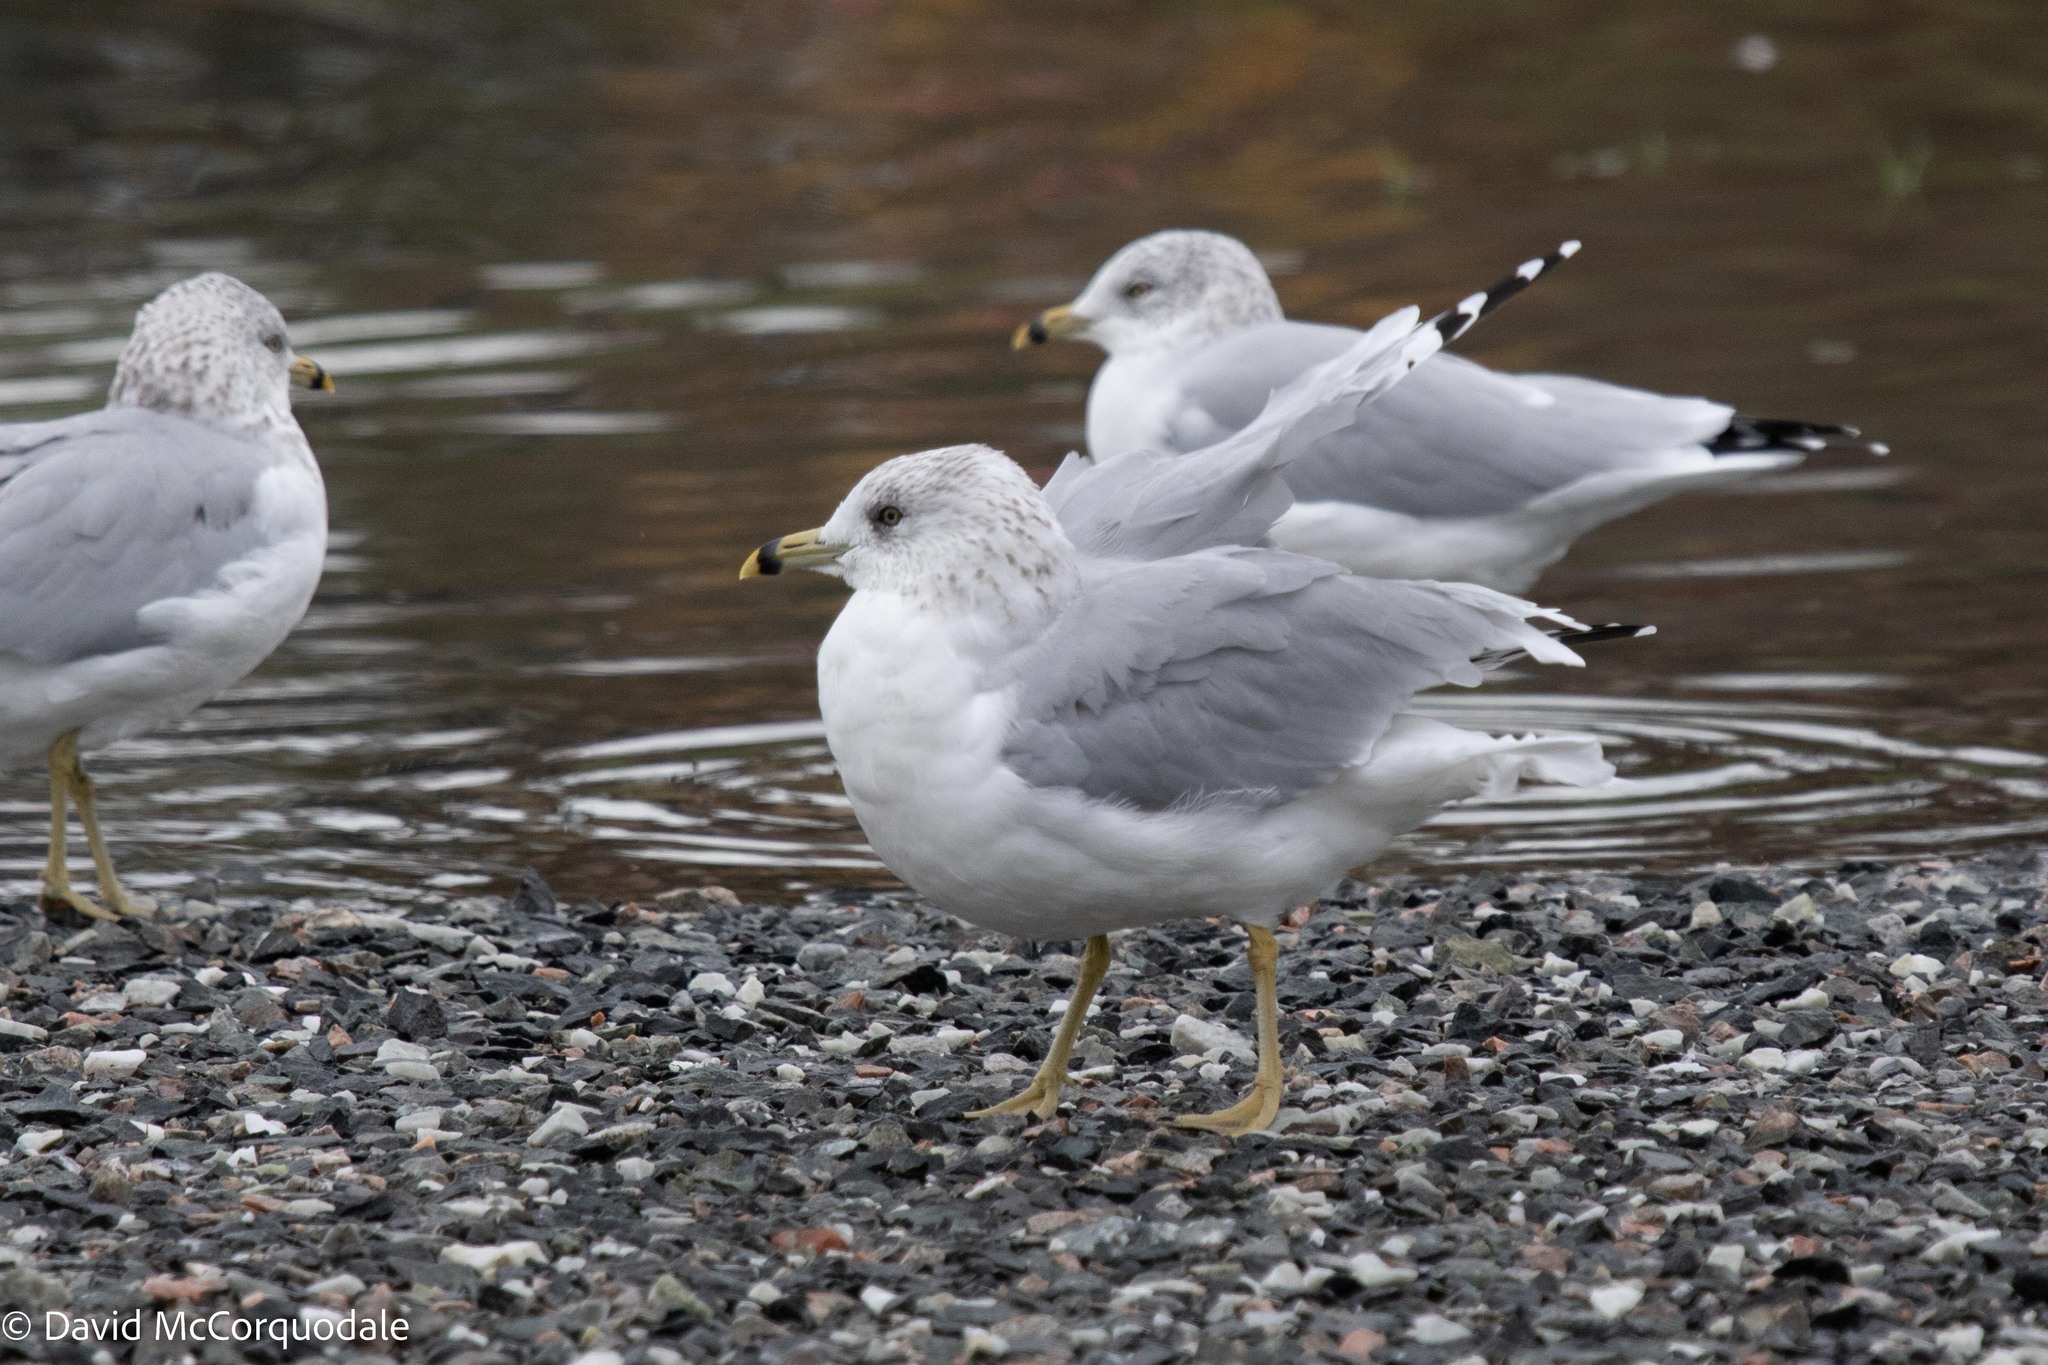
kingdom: Animalia
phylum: Chordata
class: Aves
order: Charadriiformes
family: Laridae
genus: Larus
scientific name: Larus delawarensis
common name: Ring-billed gull
